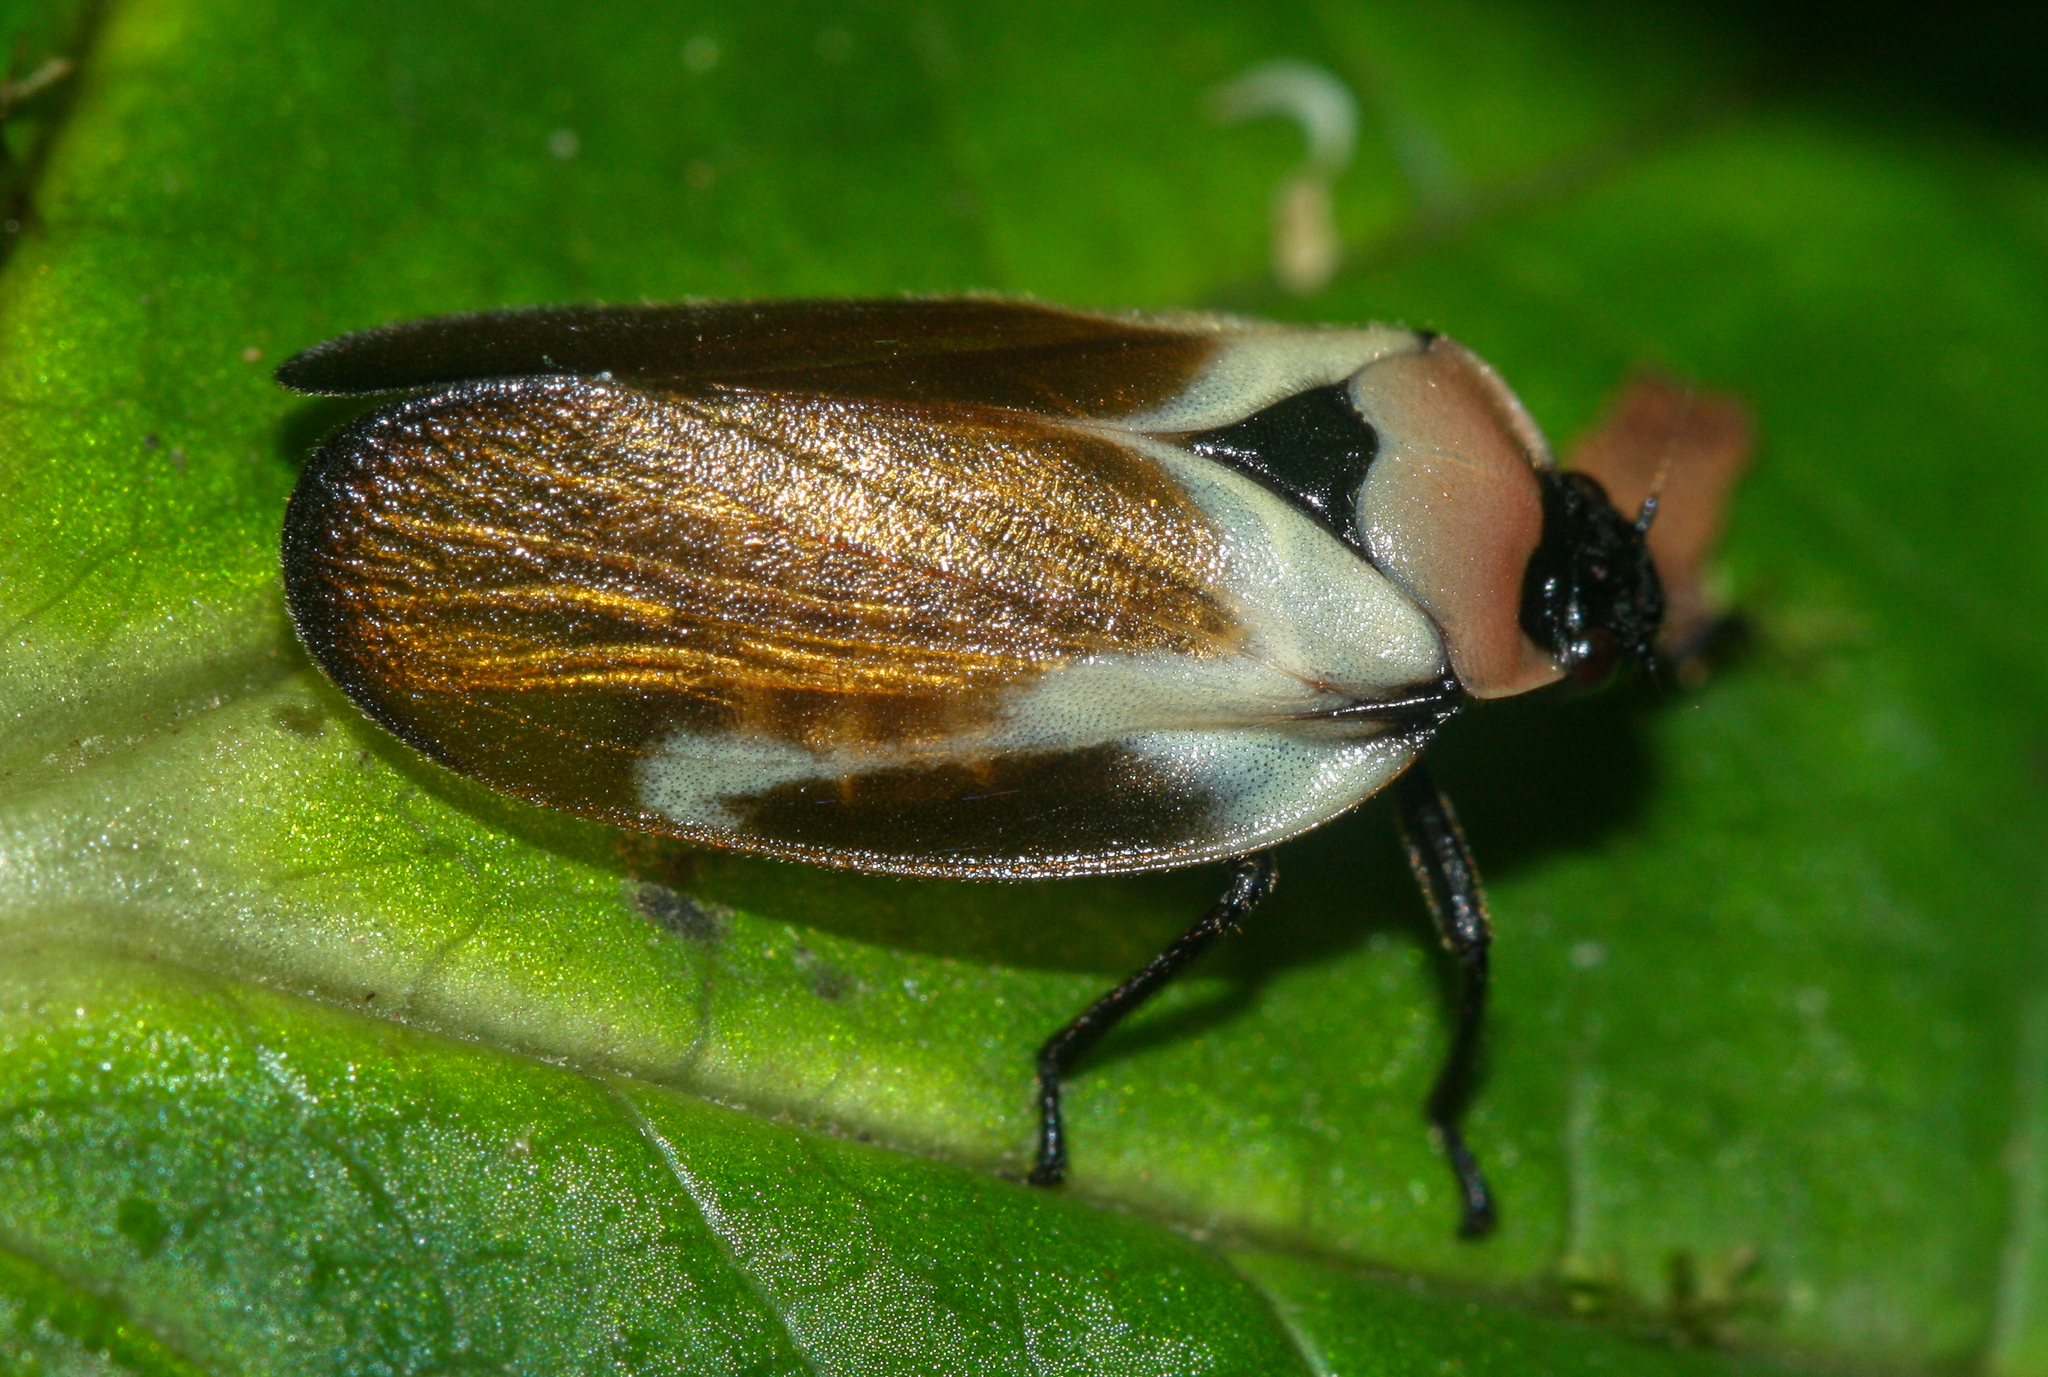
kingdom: Animalia
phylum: Arthropoda
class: Insecta
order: Hemiptera
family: Cercopidae
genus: Sphenorhina
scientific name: Sphenorhina quadrifera
